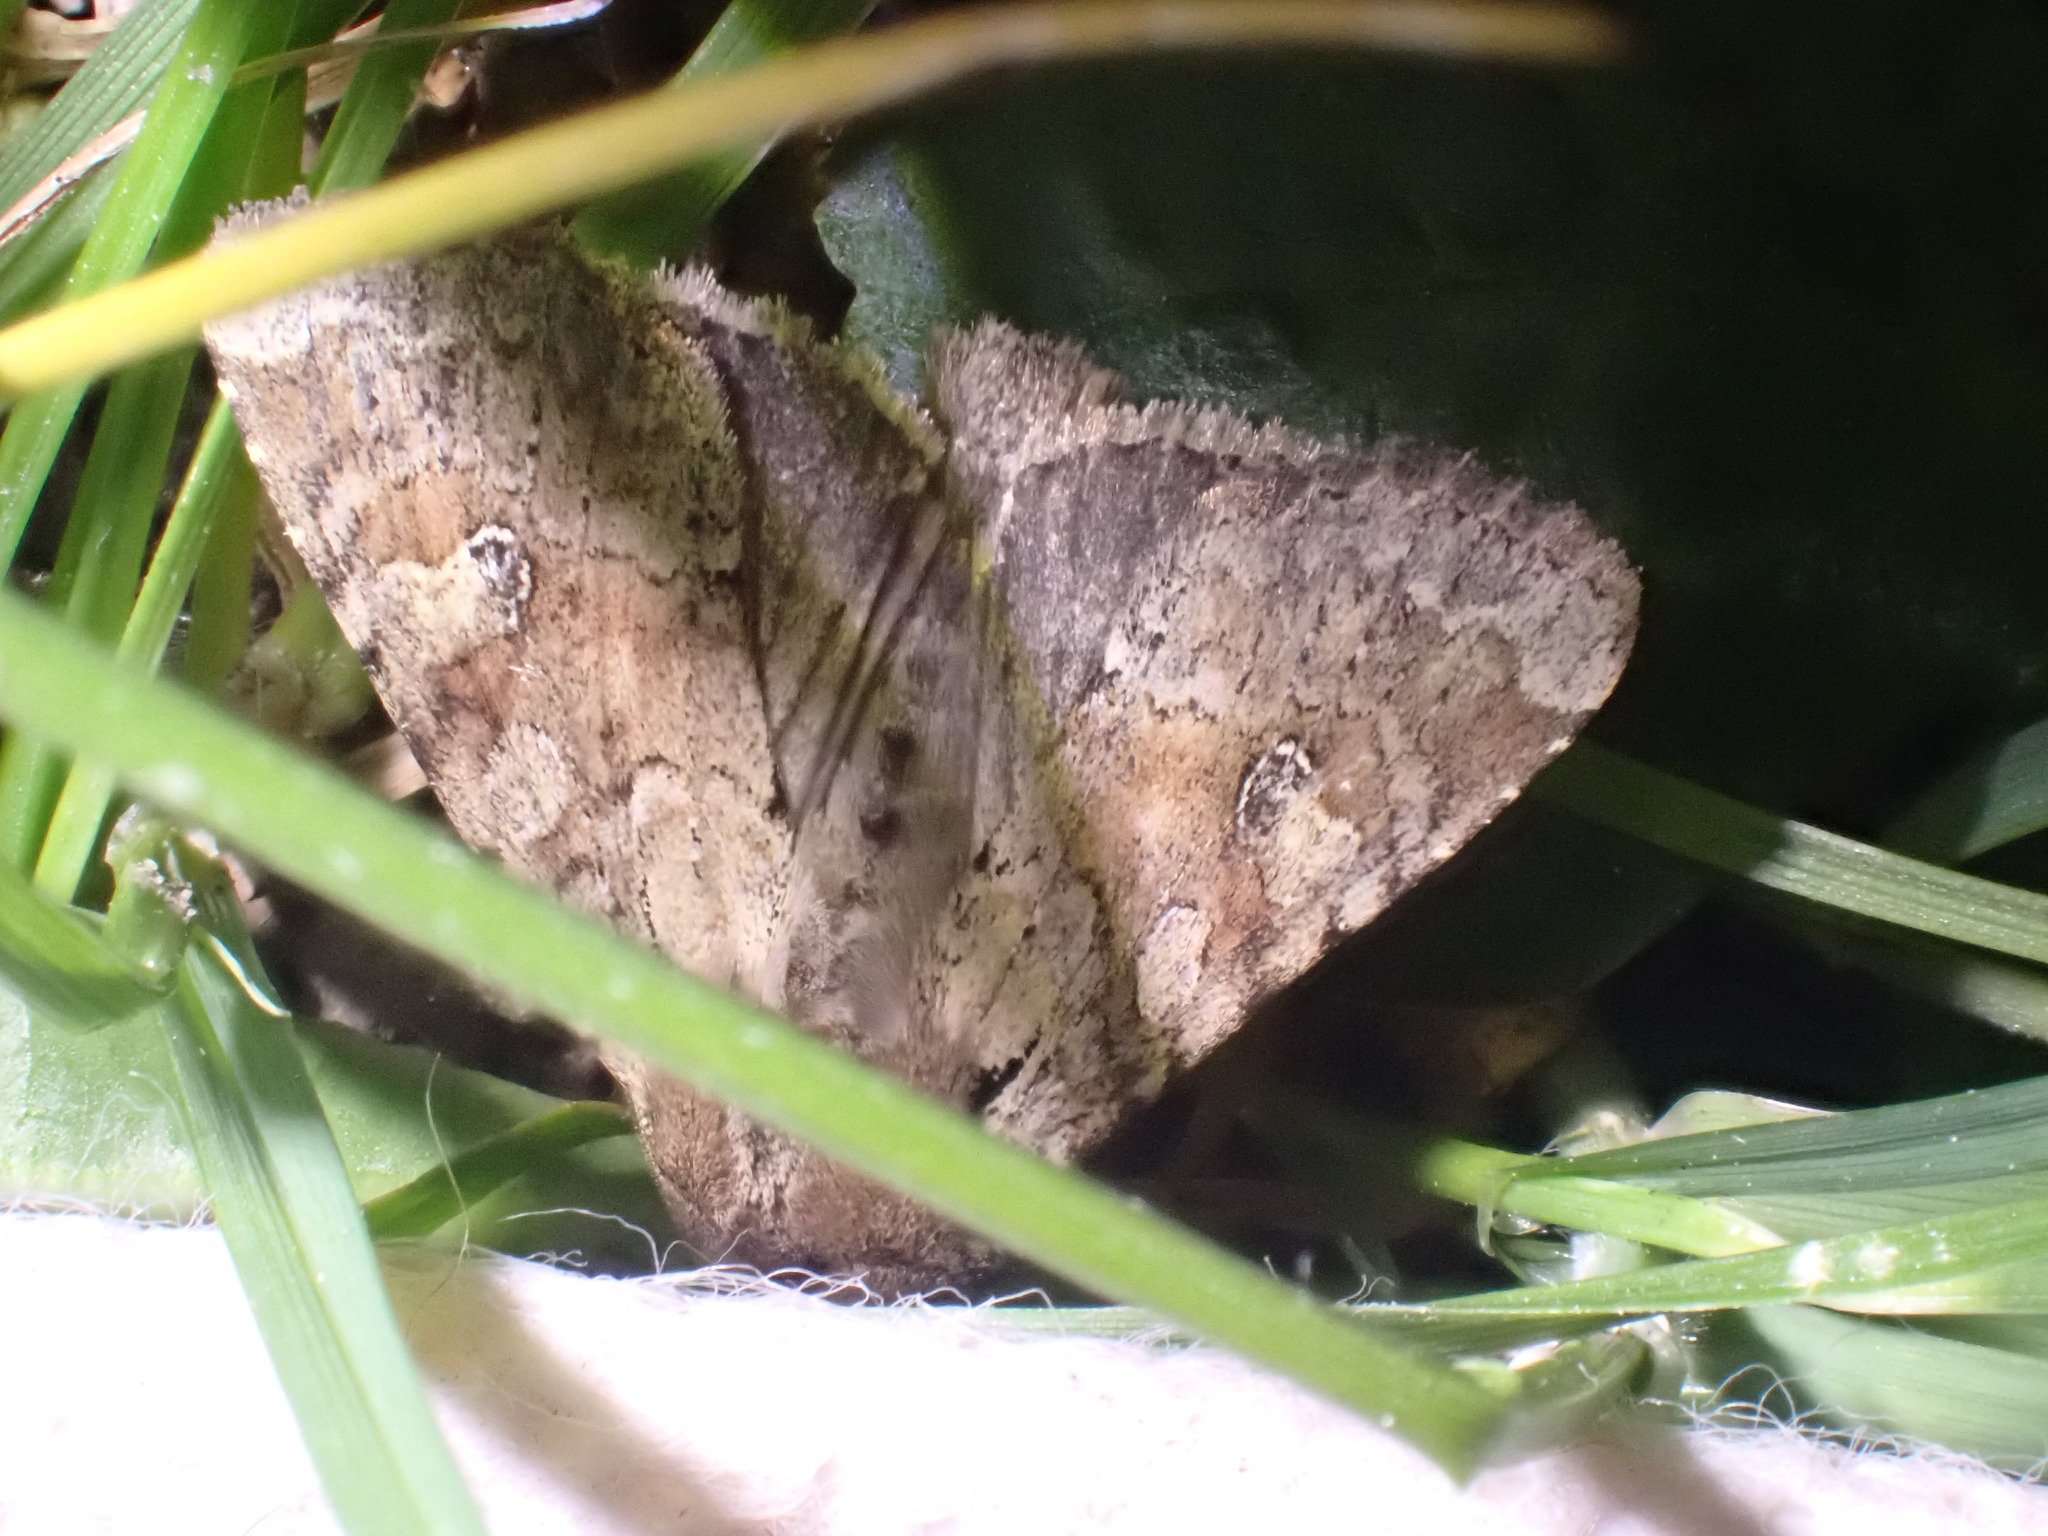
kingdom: Animalia
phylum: Arthropoda
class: Insecta
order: Lepidoptera
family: Noctuidae
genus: Apamea
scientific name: Apamea sordens
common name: Rustic shoulder-knot
